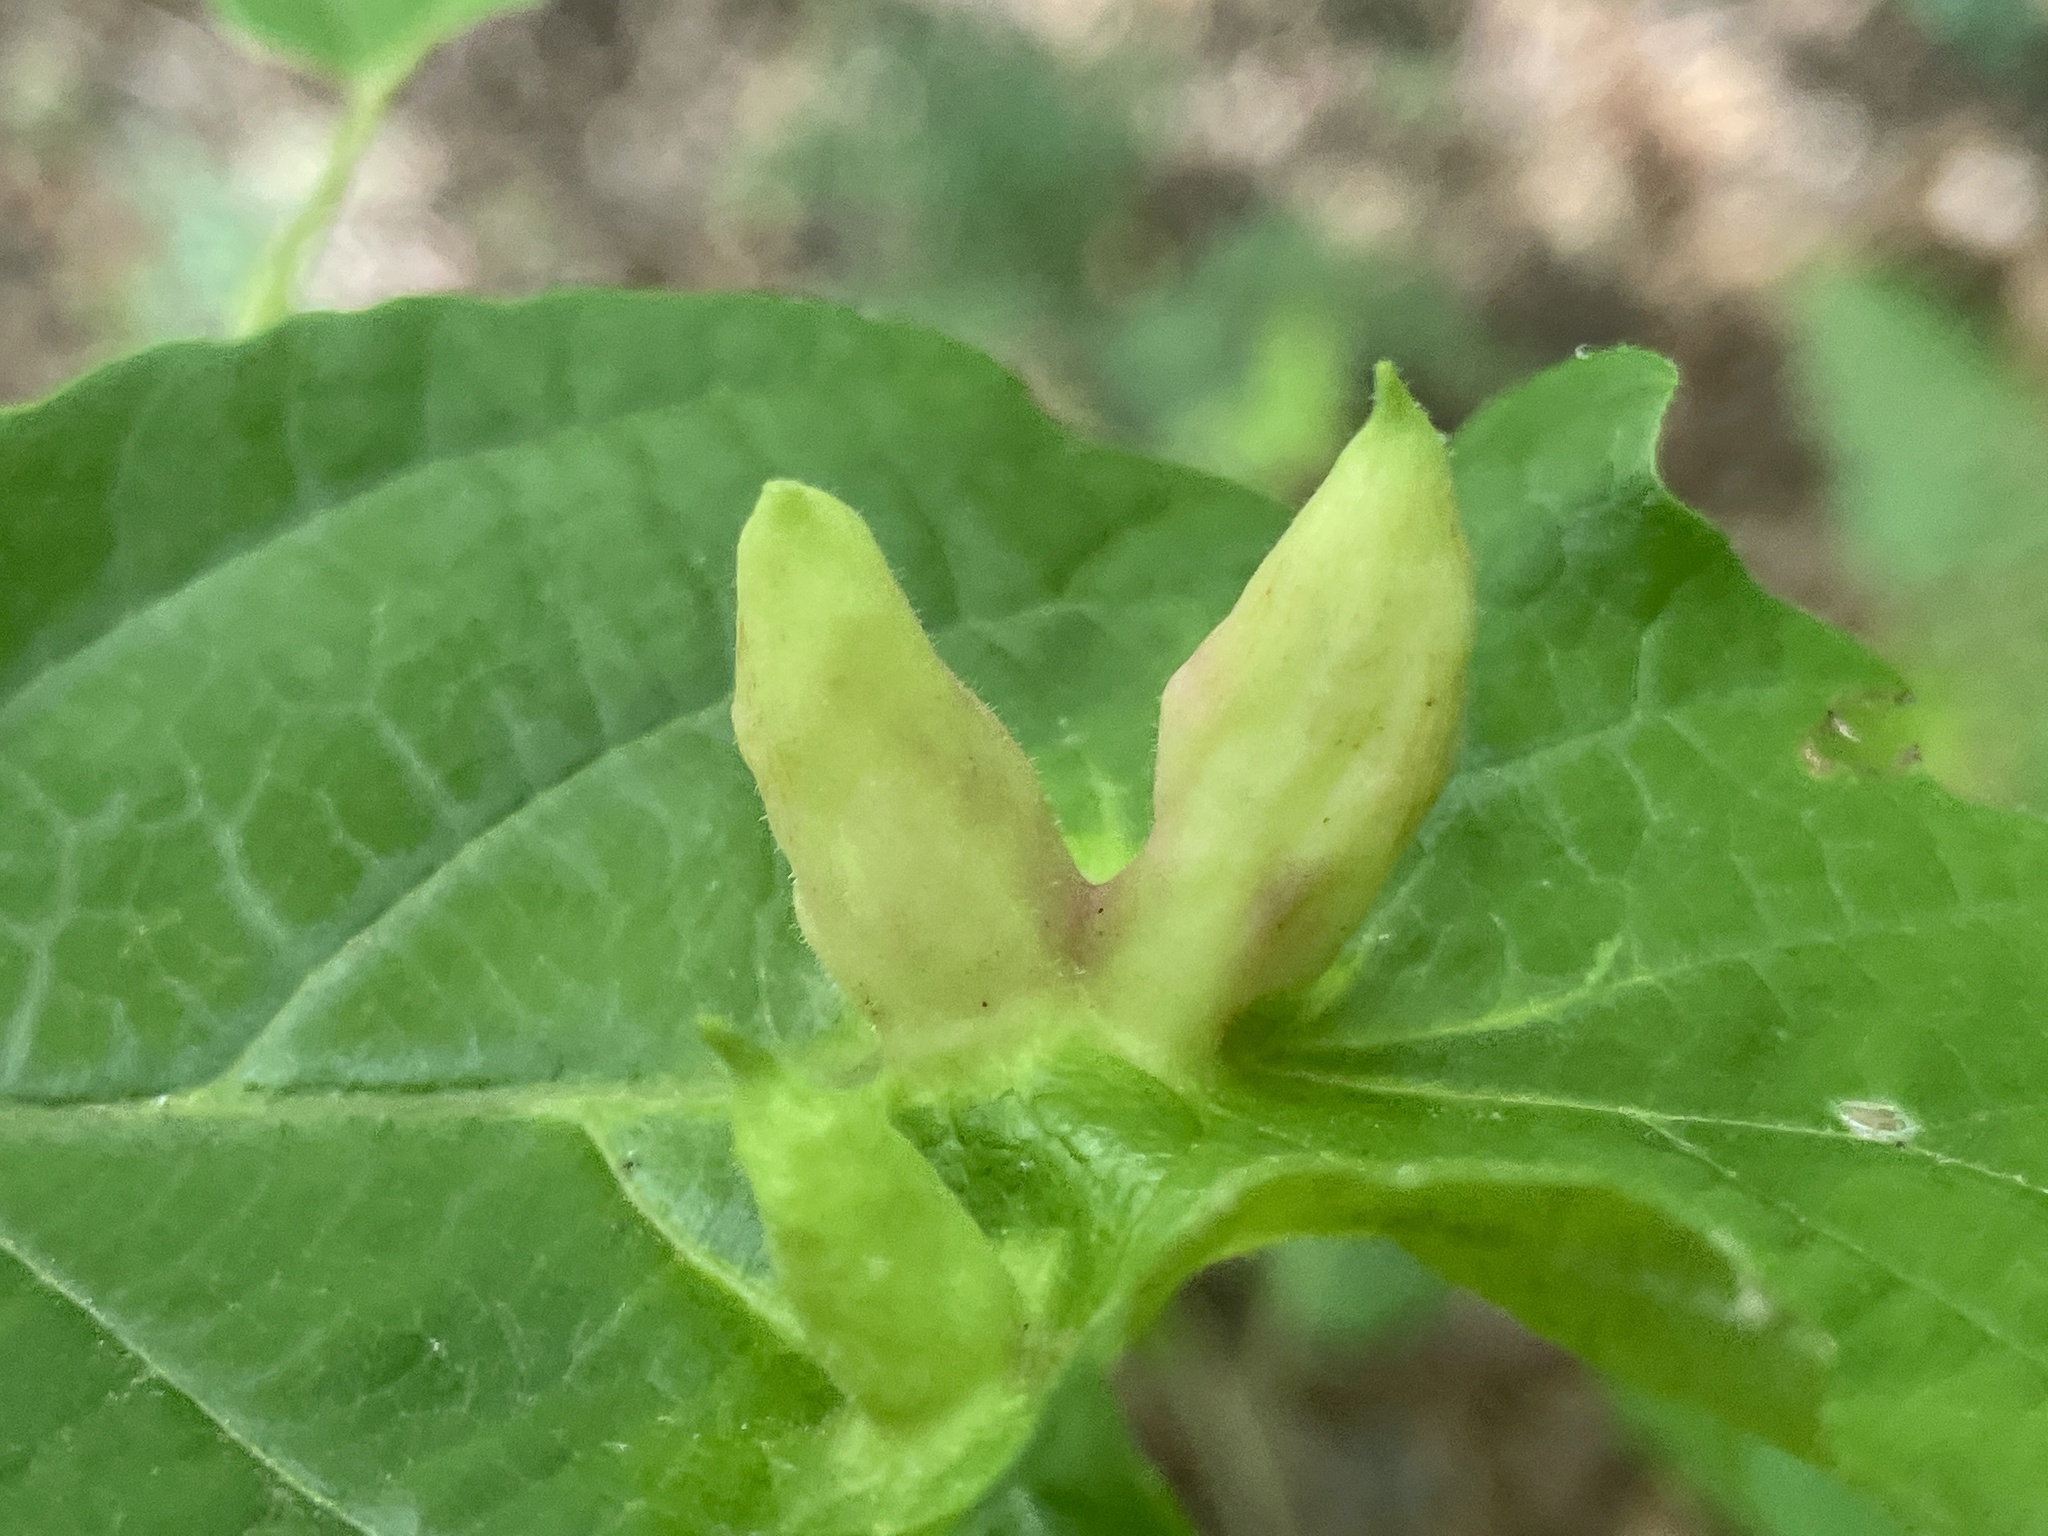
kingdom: Animalia
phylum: Arthropoda
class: Insecta
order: Hemiptera
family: Aphididae
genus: Hormaphis
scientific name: Hormaphis hamamelidis
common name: Witch-hazel cone gall aphid
